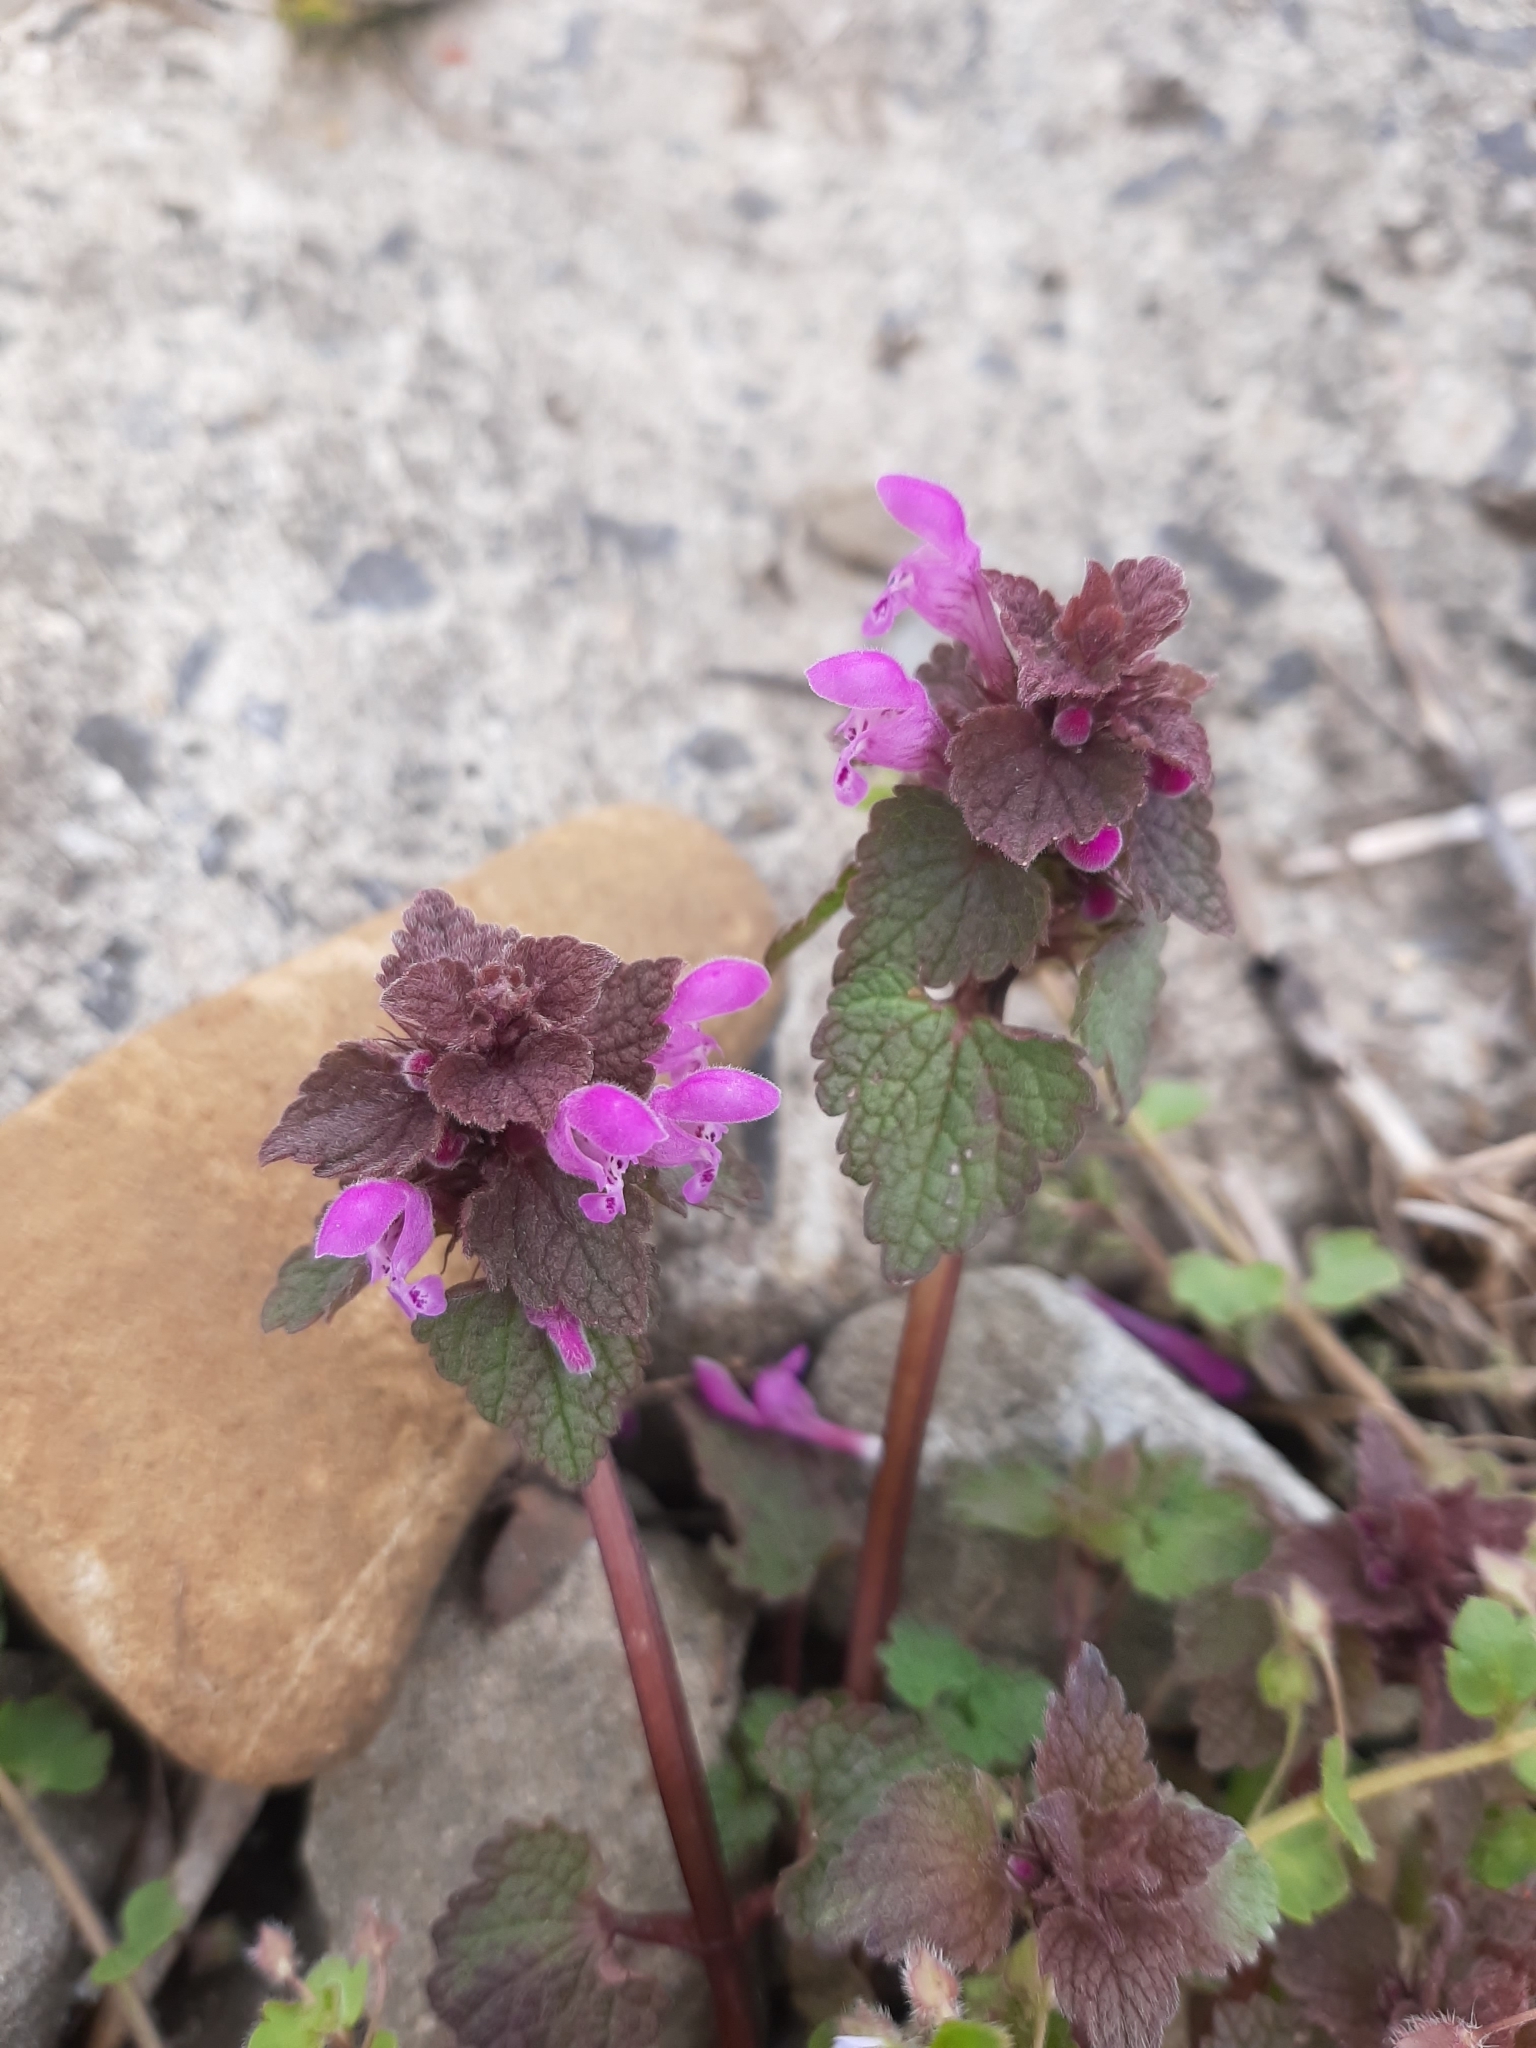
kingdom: Plantae
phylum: Tracheophyta
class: Magnoliopsida
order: Lamiales
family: Lamiaceae
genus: Lamium
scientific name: Lamium purpureum
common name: Red dead-nettle
